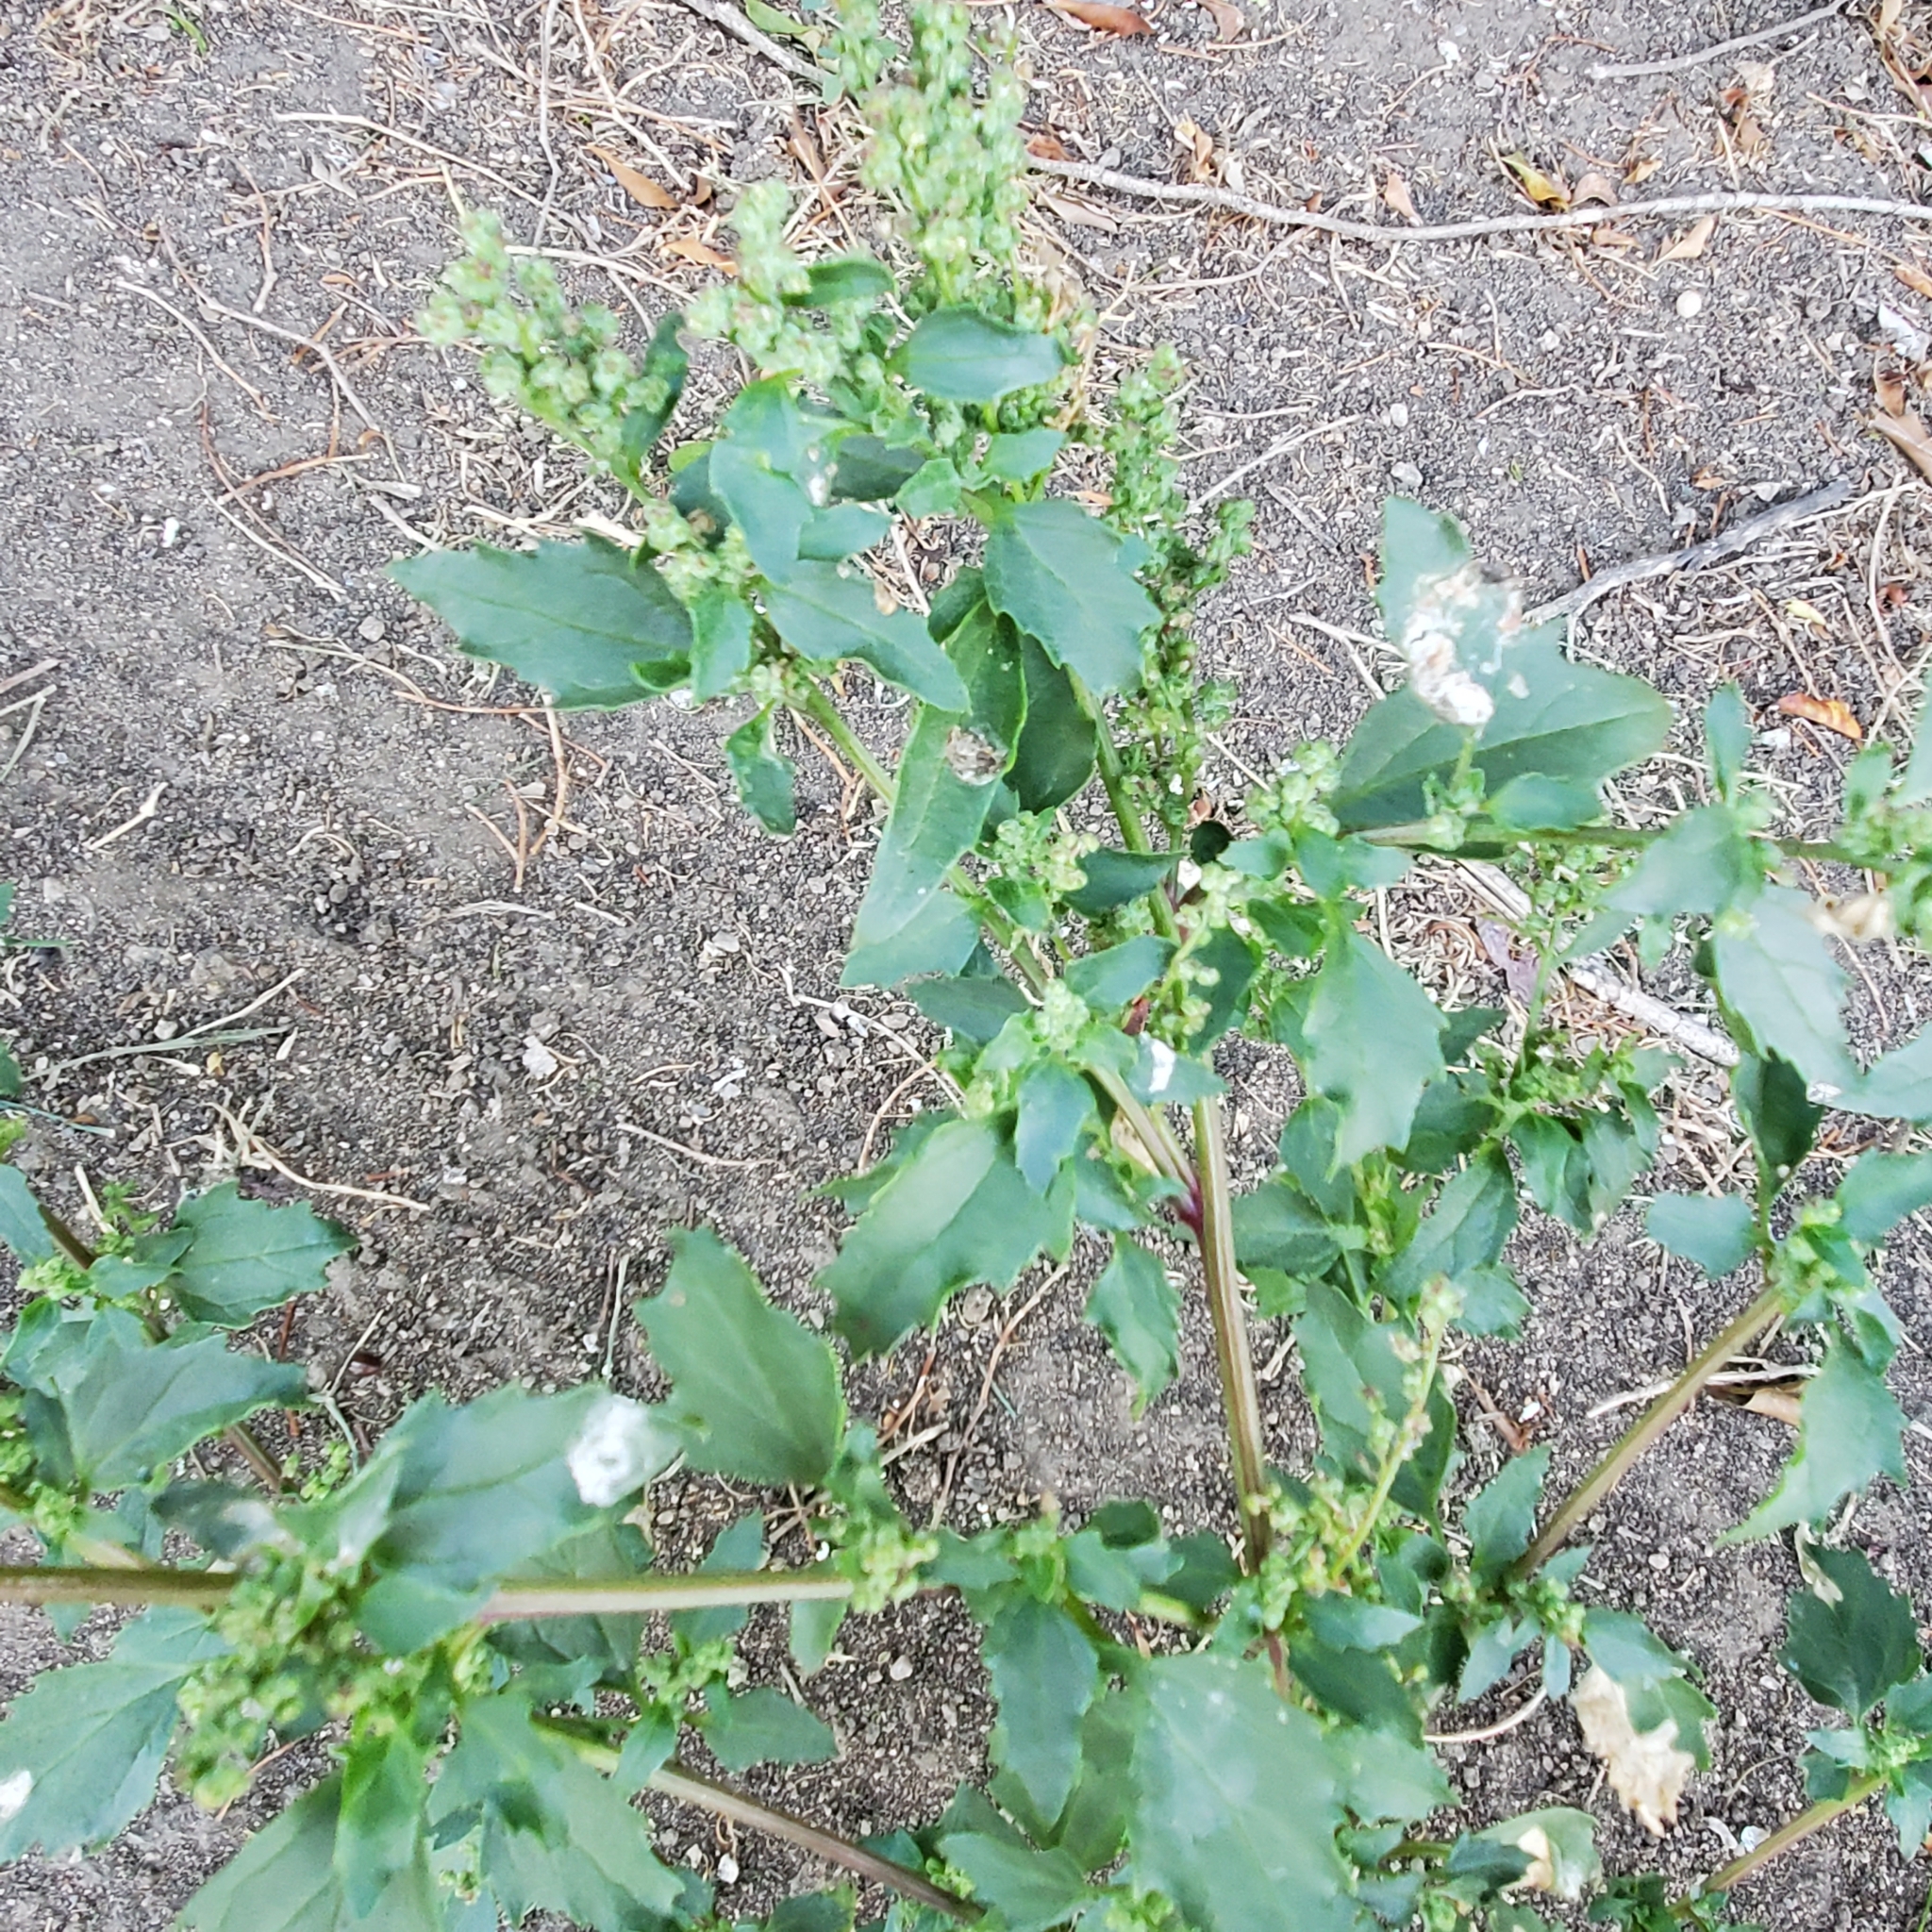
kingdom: Plantae
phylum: Tracheophyta
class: Magnoliopsida
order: Caryophyllales
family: Amaranthaceae
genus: Chenopodiastrum
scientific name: Chenopodiastrum murale
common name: Sowbane
